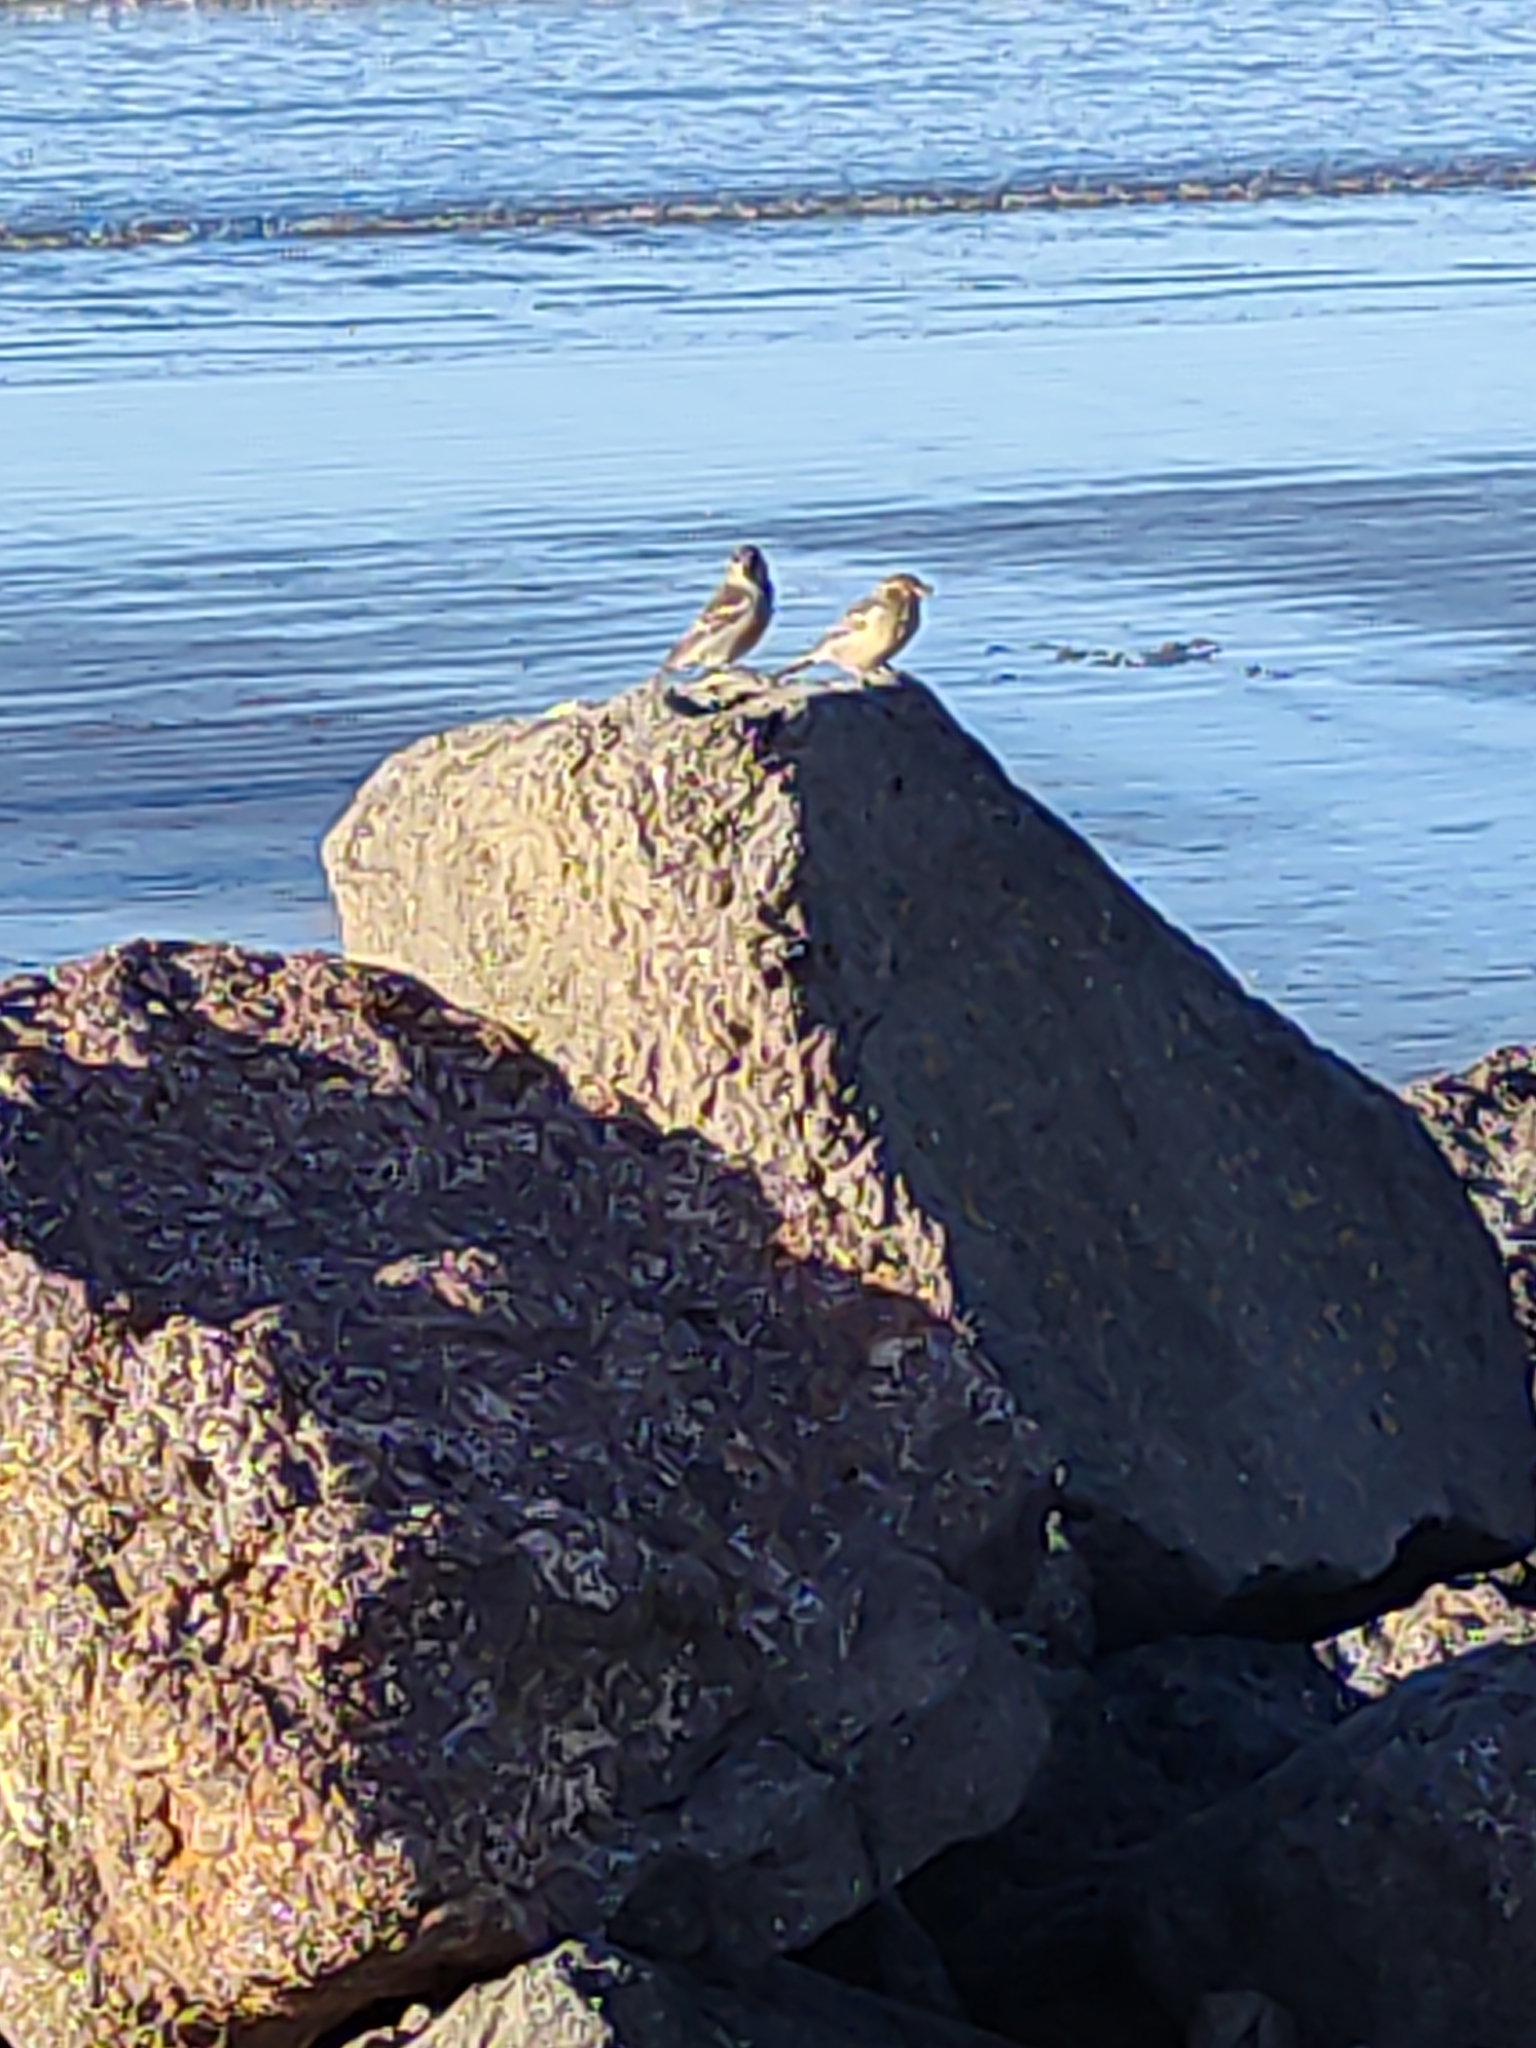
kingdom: Animalia
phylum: Chordata
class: Aves
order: Passeriformes
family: Passeridae
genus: Passer
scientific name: Passer domesticus
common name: House sparrow
